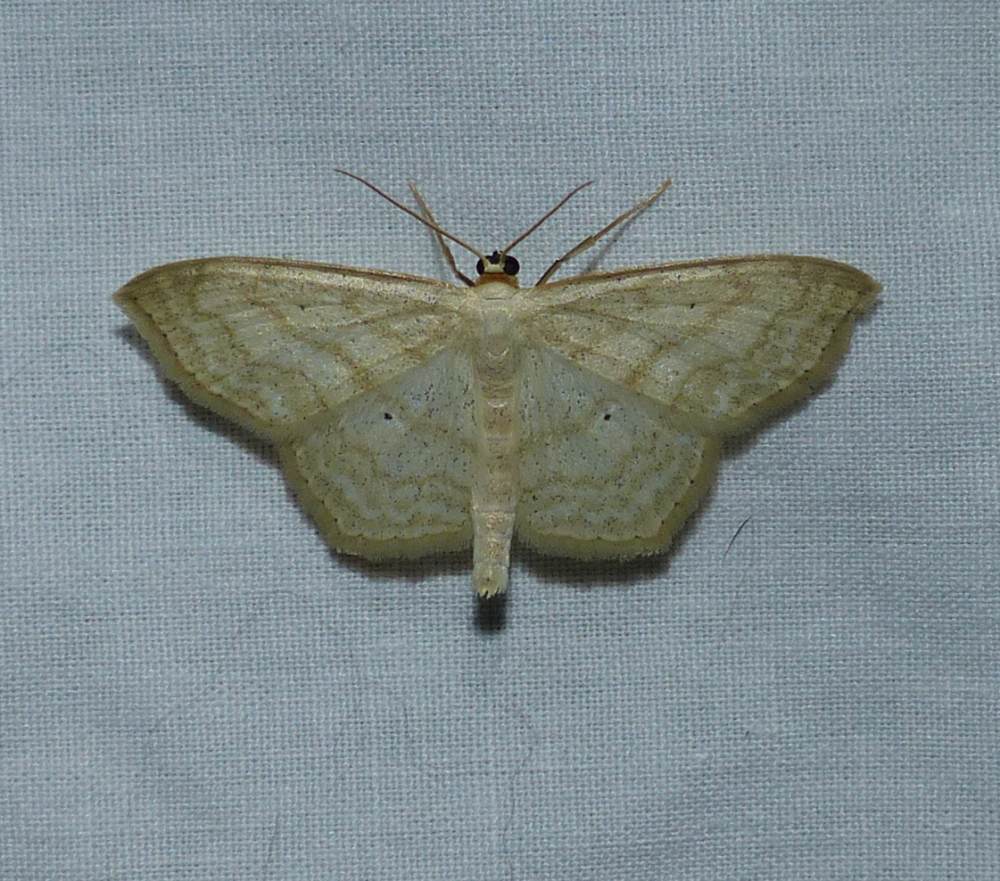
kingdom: Animalia
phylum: Arthropoda
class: Insecta
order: Lepidoptera
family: Geometridae
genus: Scopula
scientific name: Scopula limboundata
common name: Large lace border
